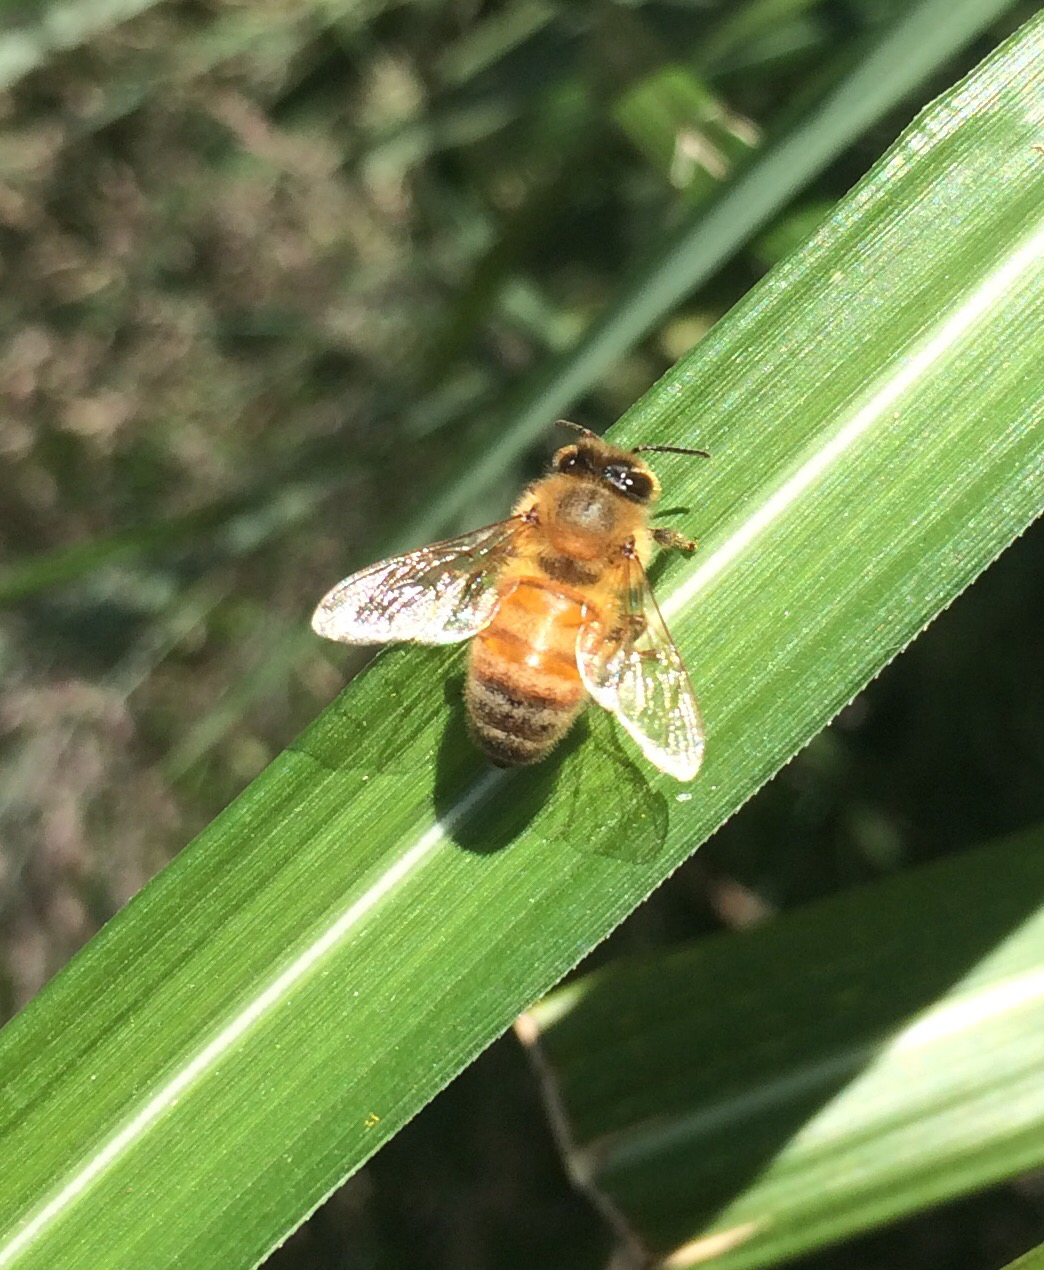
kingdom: Animalia
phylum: Arthropoda
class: Insecta
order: Hymenoptera
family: Apidae
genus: Apis
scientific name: Apis mellifera
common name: Honey bee
